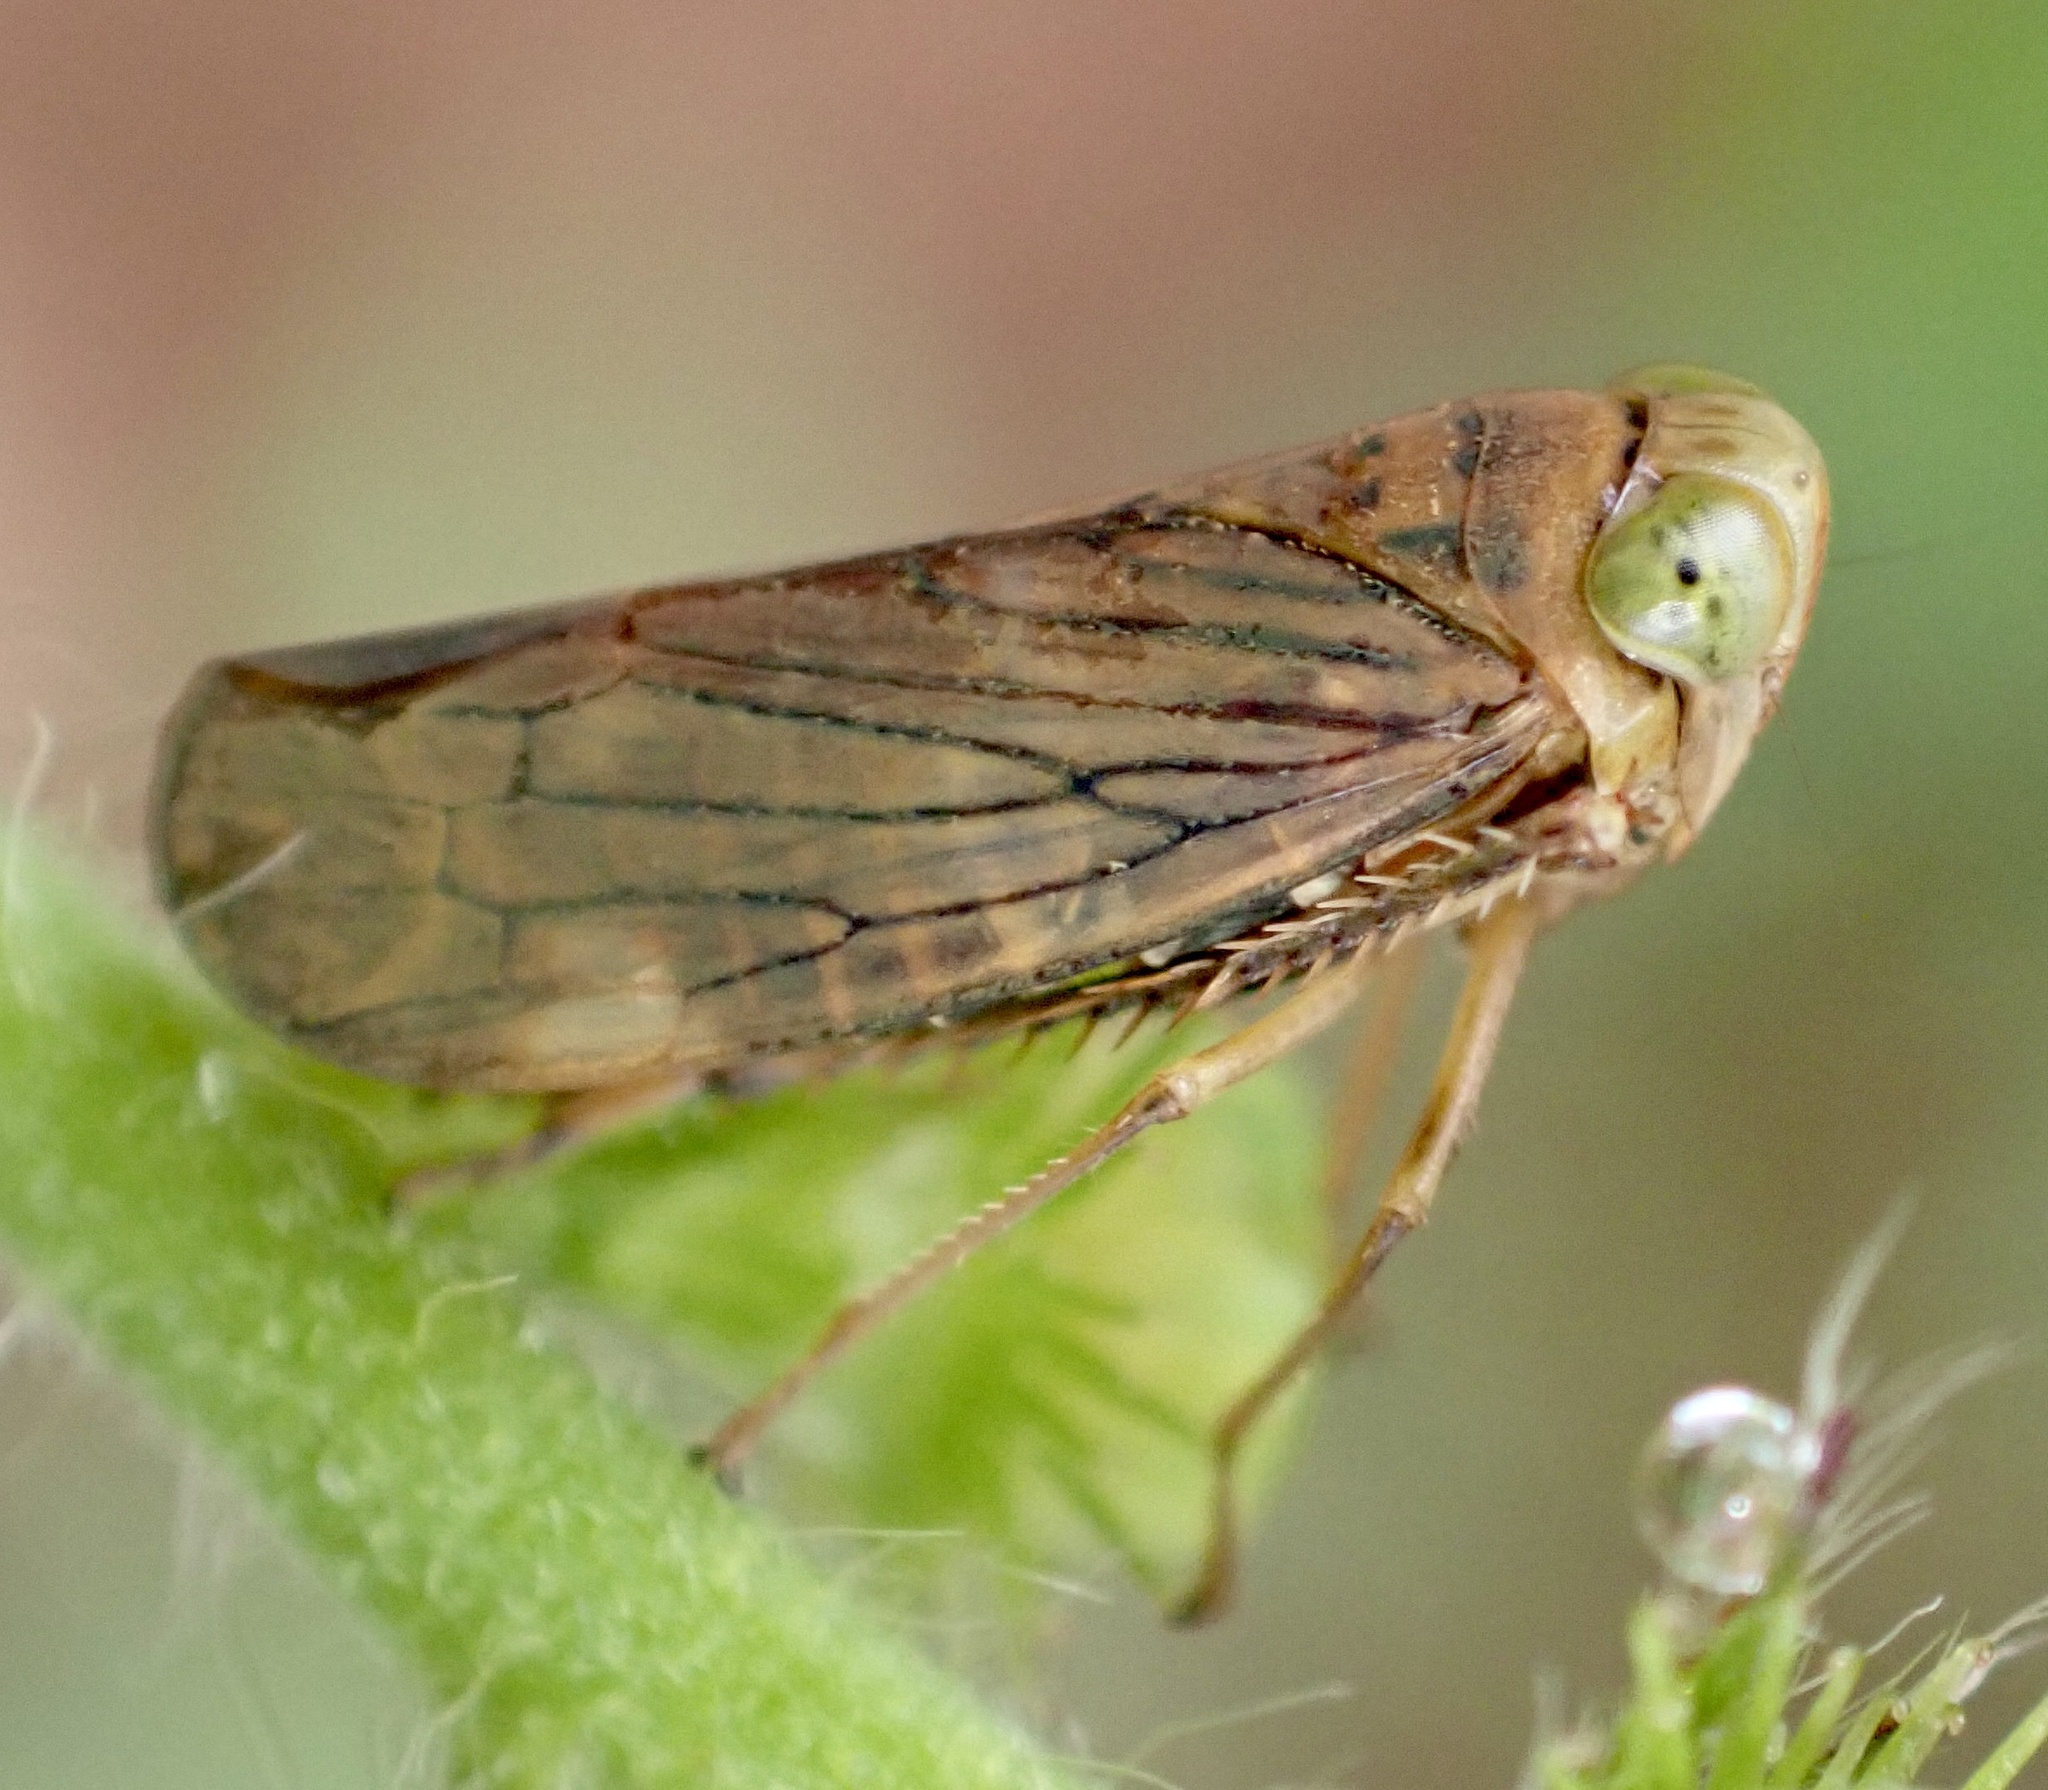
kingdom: Animalia
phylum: Arthropoda
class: Insecta
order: Hemiptera
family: Cicadellidae
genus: Jikradia
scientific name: Jikradia olitoria
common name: Coppery leafhopper
